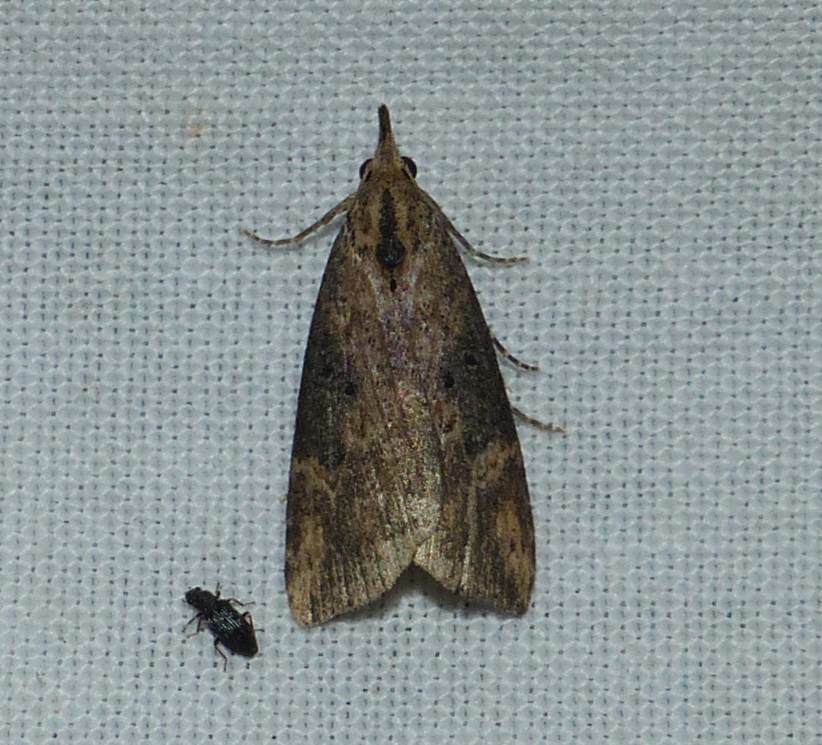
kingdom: Animalia
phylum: Arthropoda
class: Insecta
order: Lepidoptera
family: Erebidae
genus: Hypena
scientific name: Hypena humuli
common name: Hop vine snout
